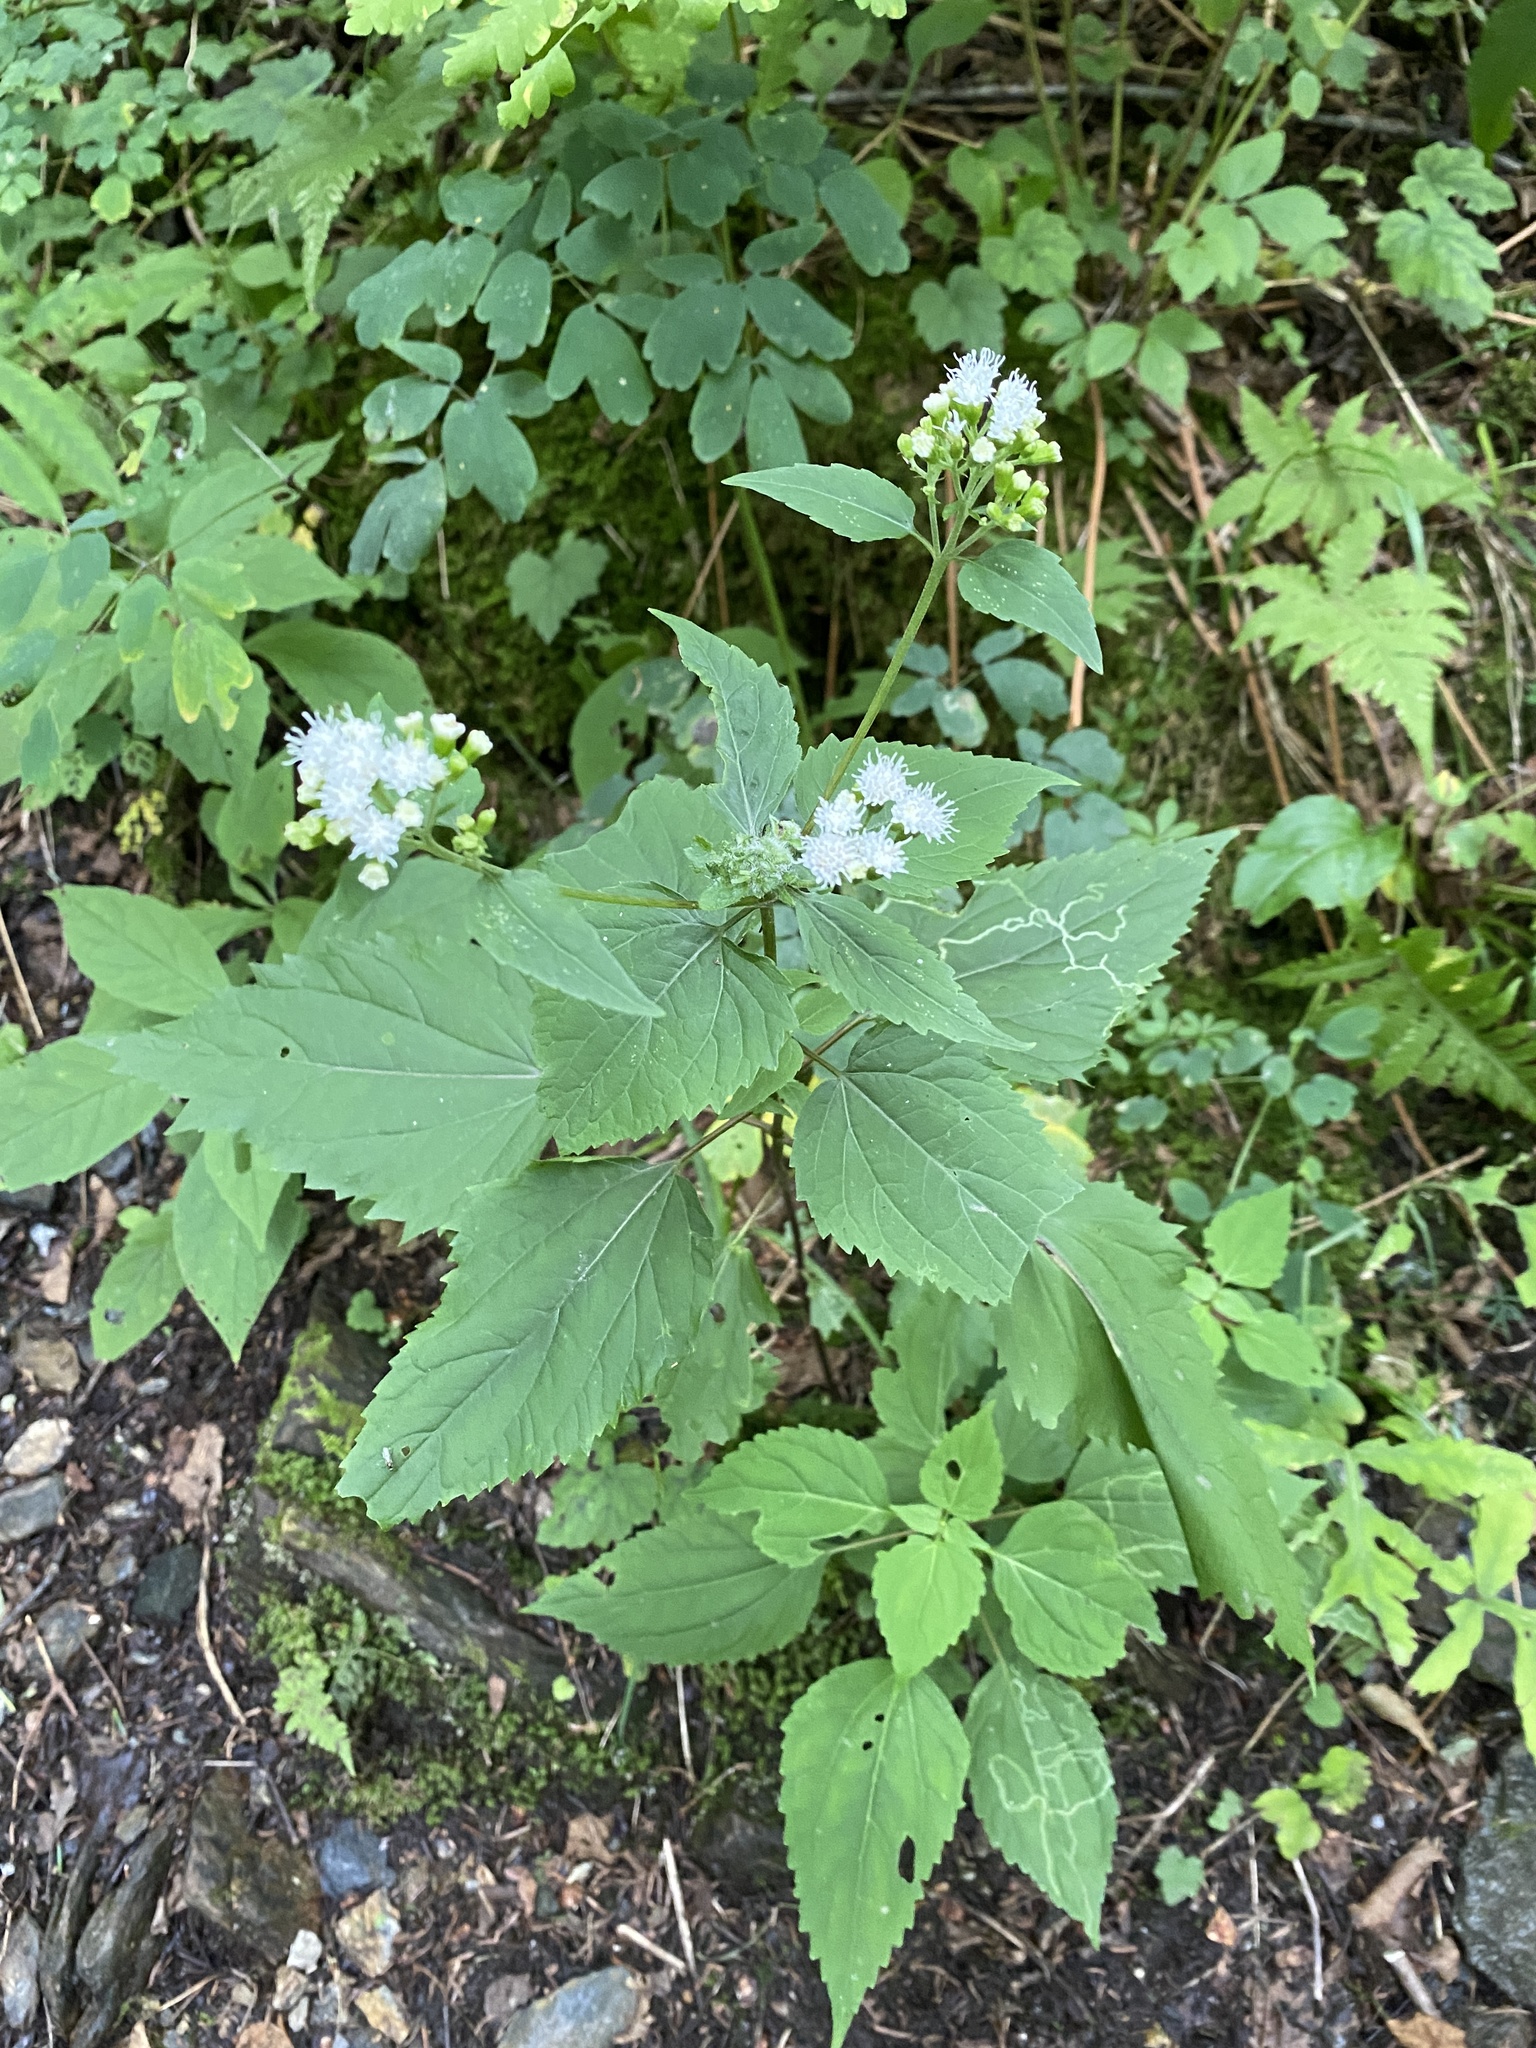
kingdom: Plantae
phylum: Tracheophyta
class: Magnoliopsida
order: Asterales
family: Asteraceae
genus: Ageratina
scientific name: Ageratina altissima
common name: White snakeroot
